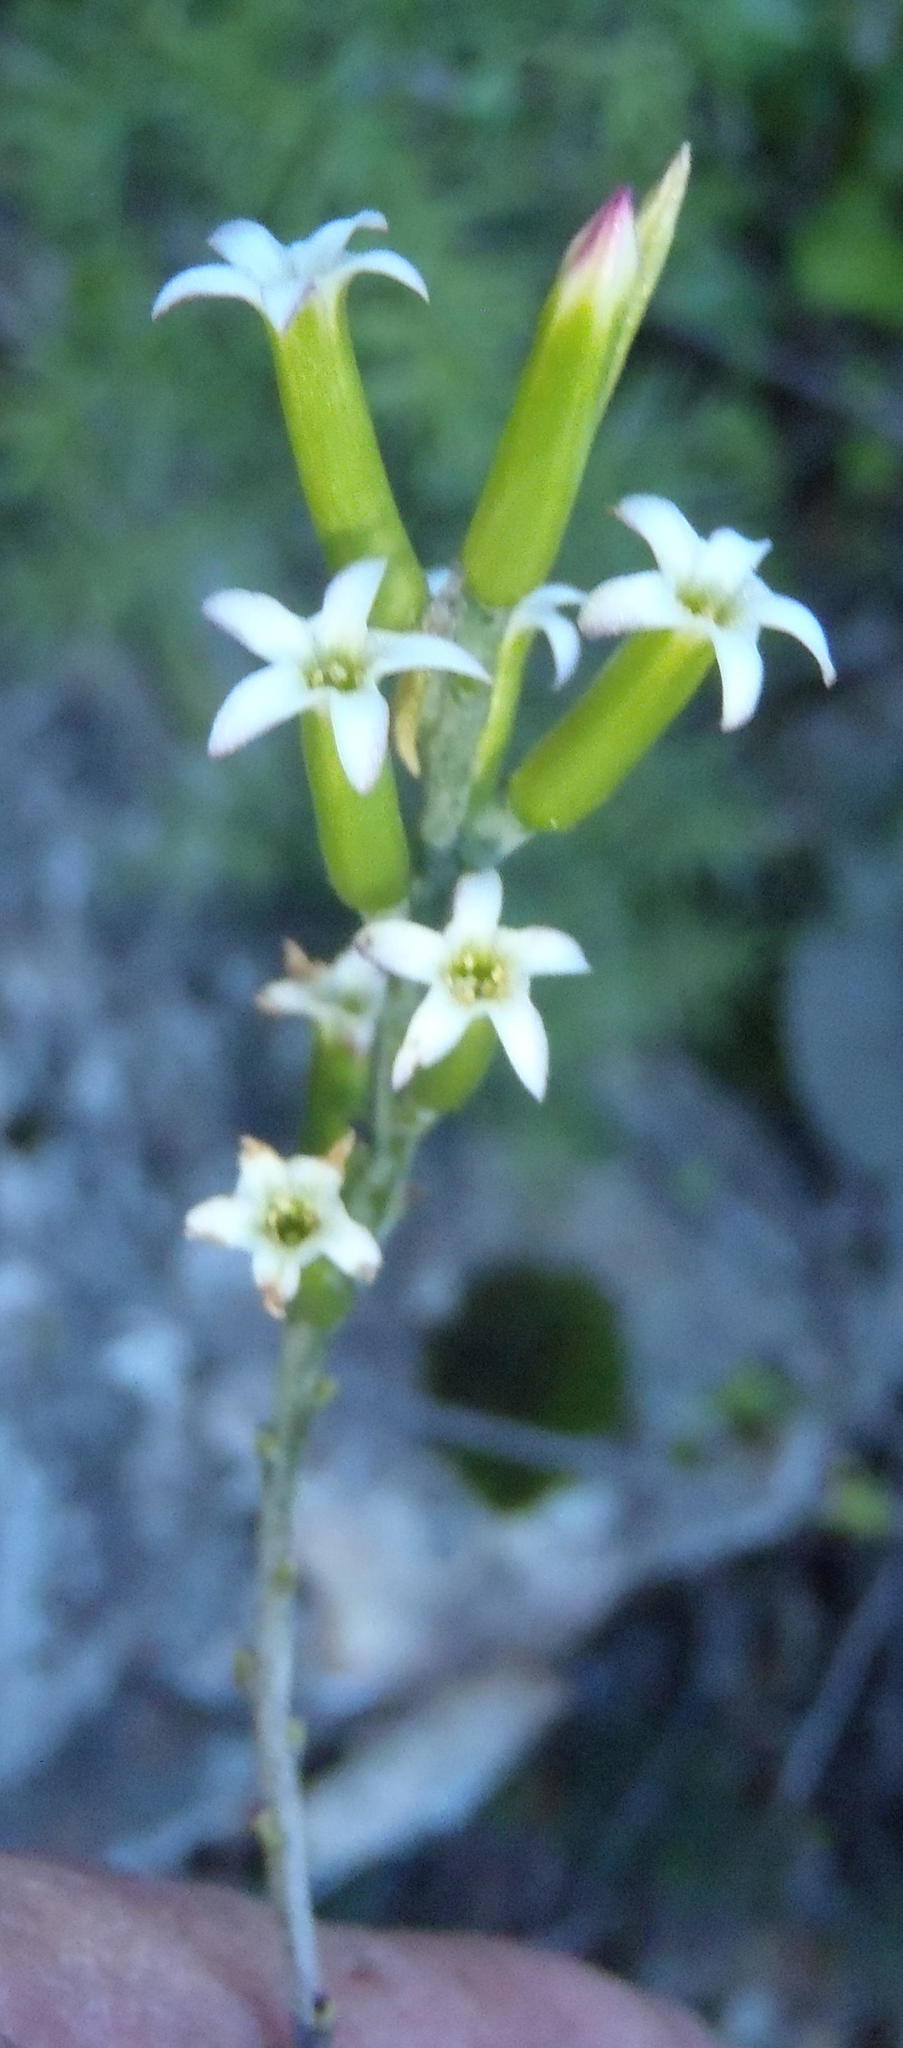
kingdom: Plantae
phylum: Tracheophyta
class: Magnoliopsida
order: Saxifragales
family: Crassulaceae
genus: Adromischus
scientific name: Adromischus sphenophyllus
